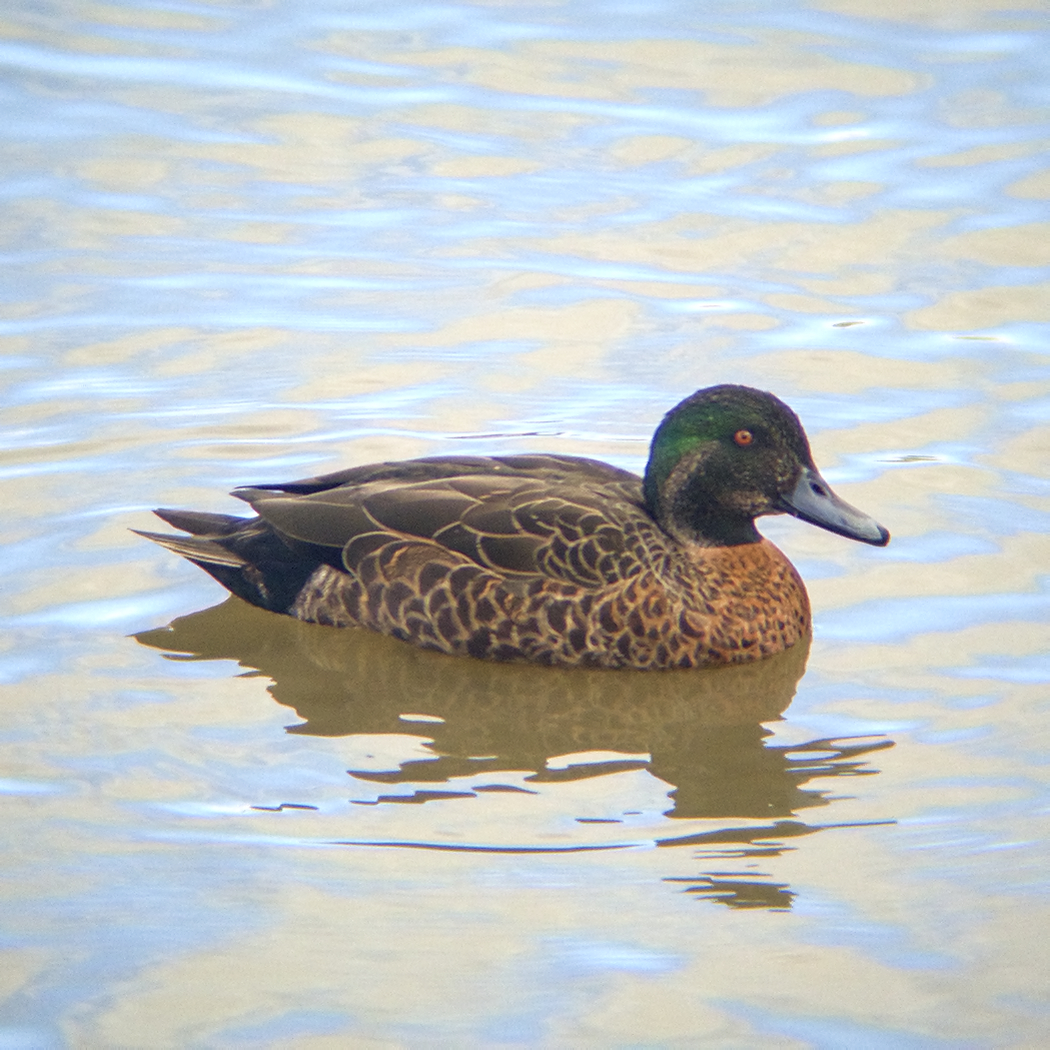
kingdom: Animalia
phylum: Chordata
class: Aves
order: Anseriformes
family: Anatidae
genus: Anas
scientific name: Anas castanea
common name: Chestnut teal
